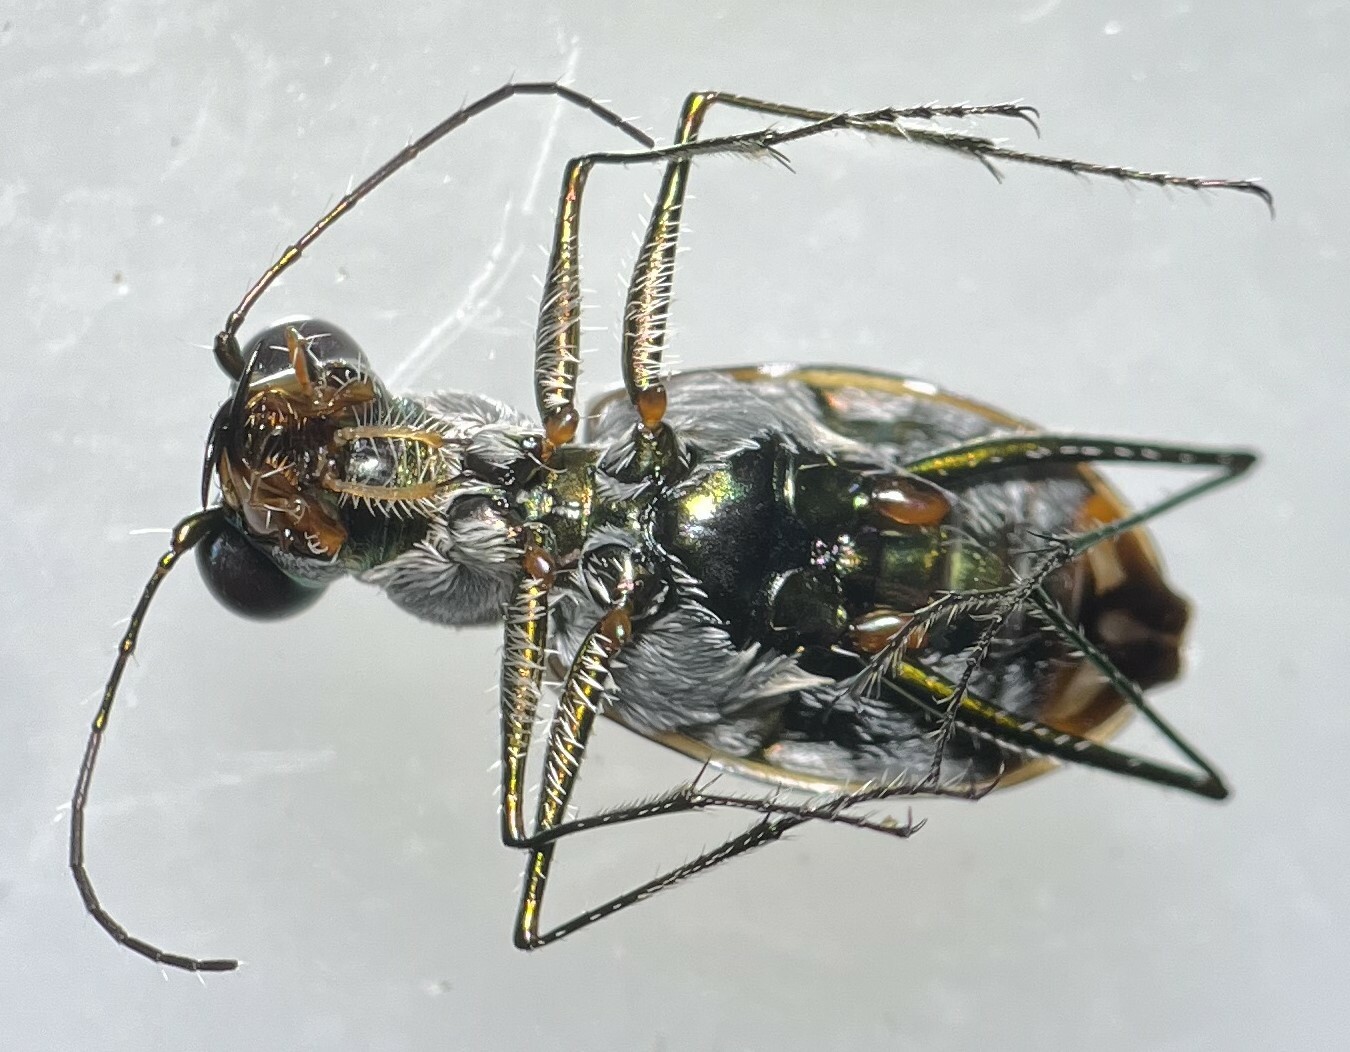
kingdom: Animalia
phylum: Arthropoda
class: Insecta
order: Coleoptera
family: Carabidae
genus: Eunota
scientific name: Eunota pamphila
